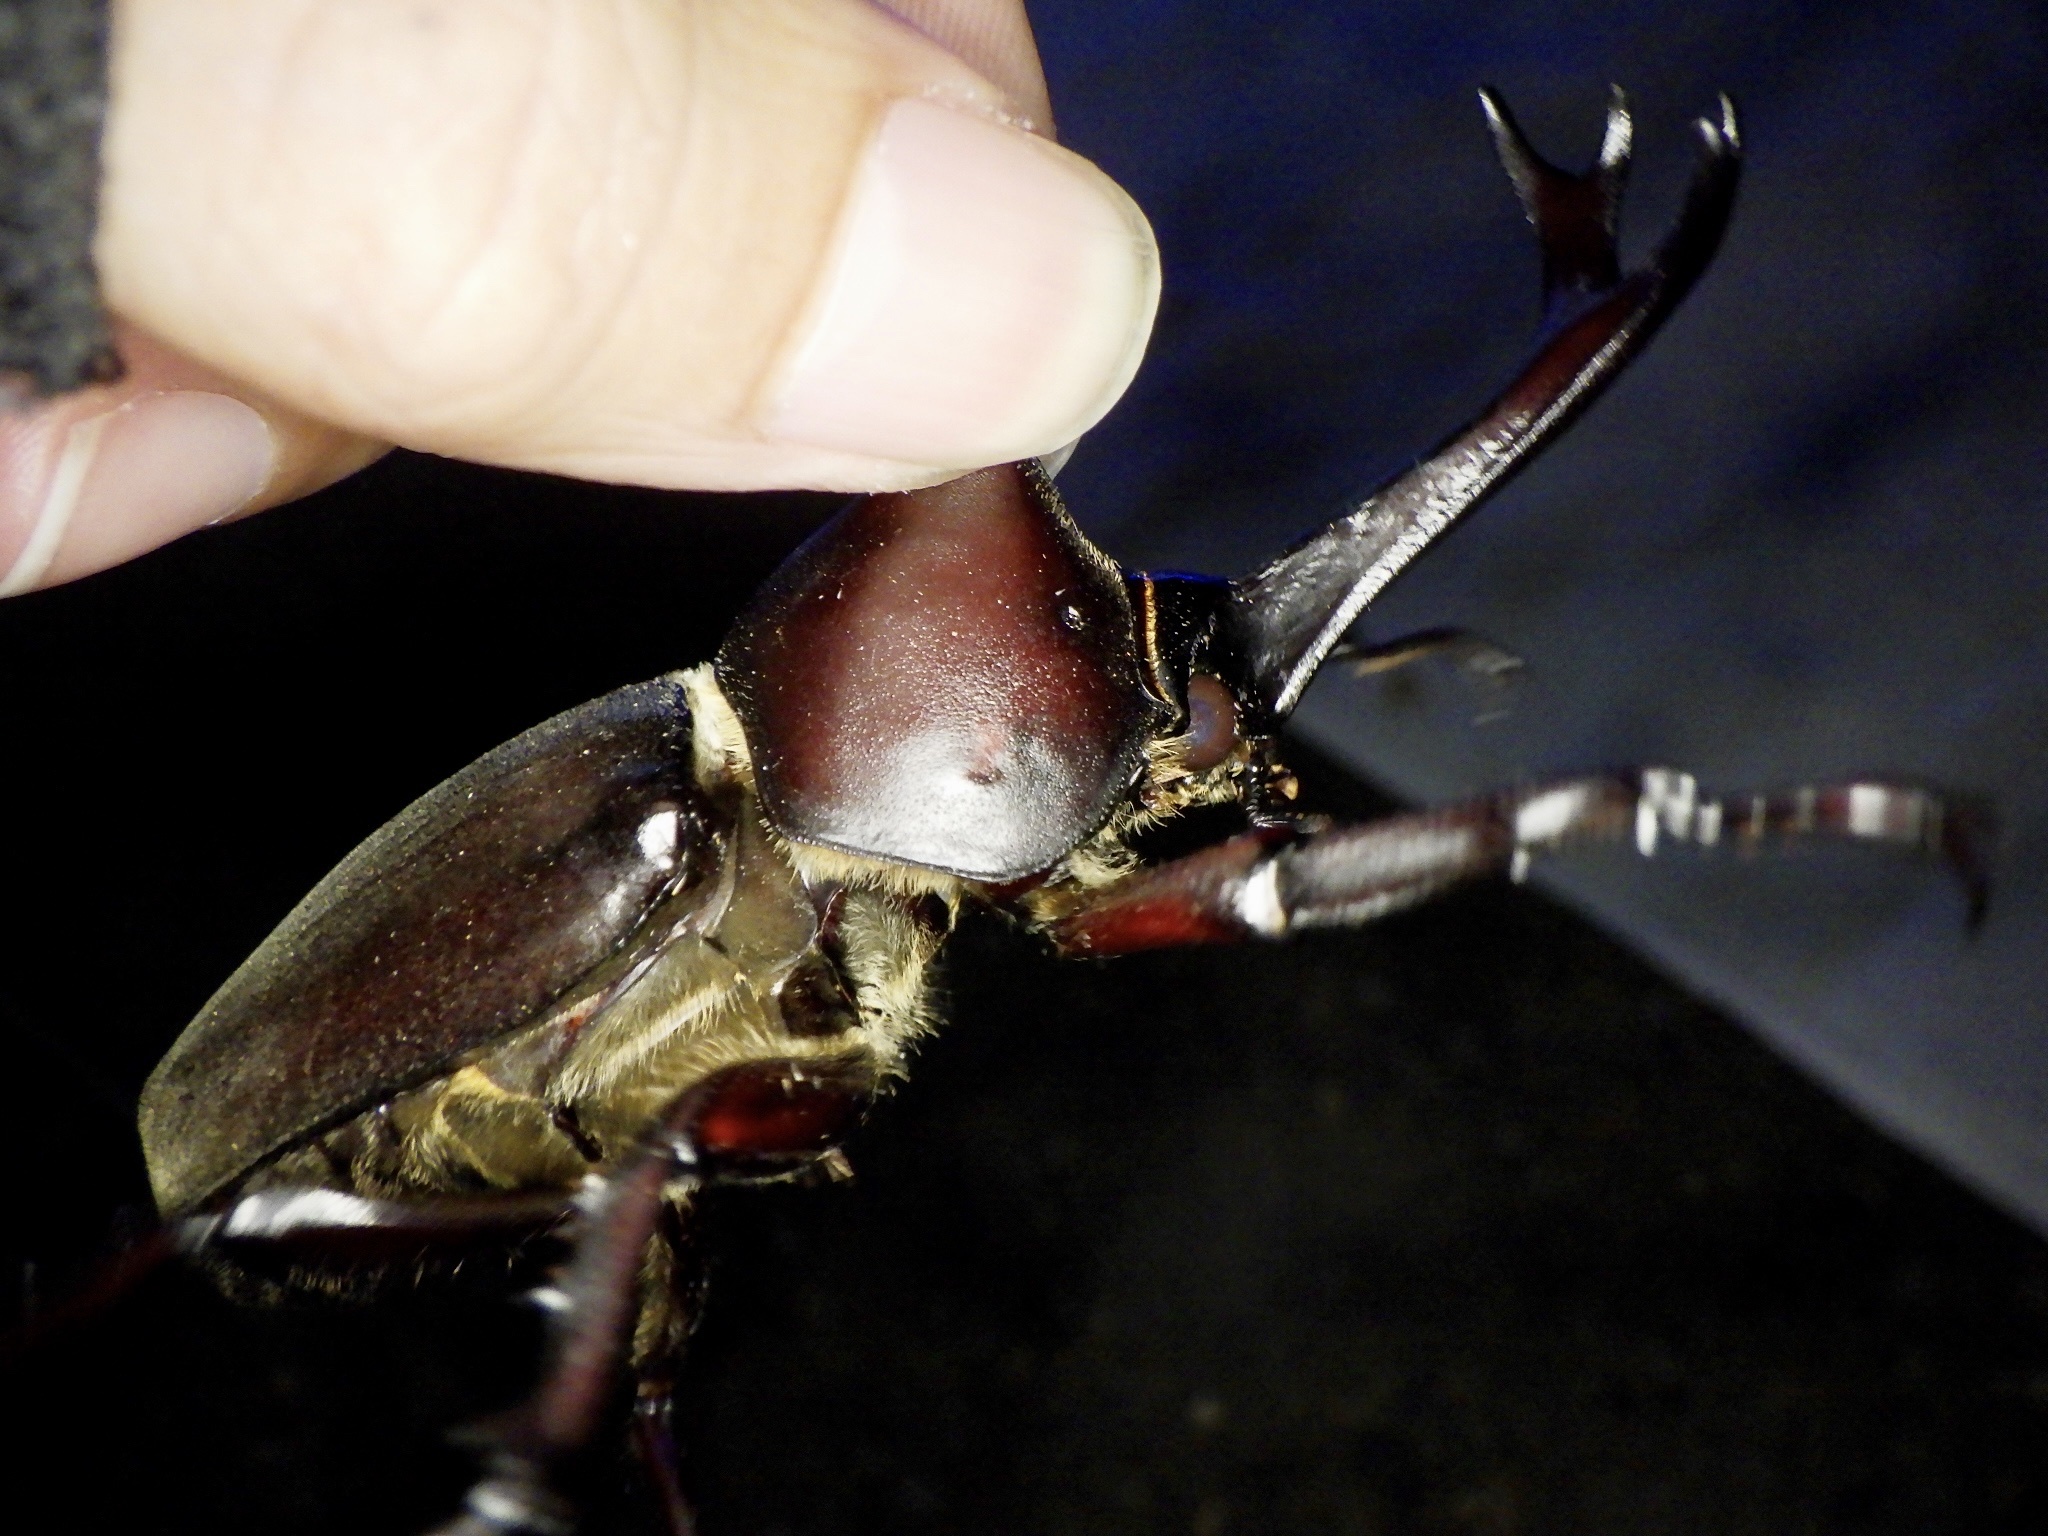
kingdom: Animalia
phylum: Arthropoda
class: Insecta
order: Coleoptera
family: Scarabaeidae
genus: Trypoxylus
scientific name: Trypoxylus dichotomus
